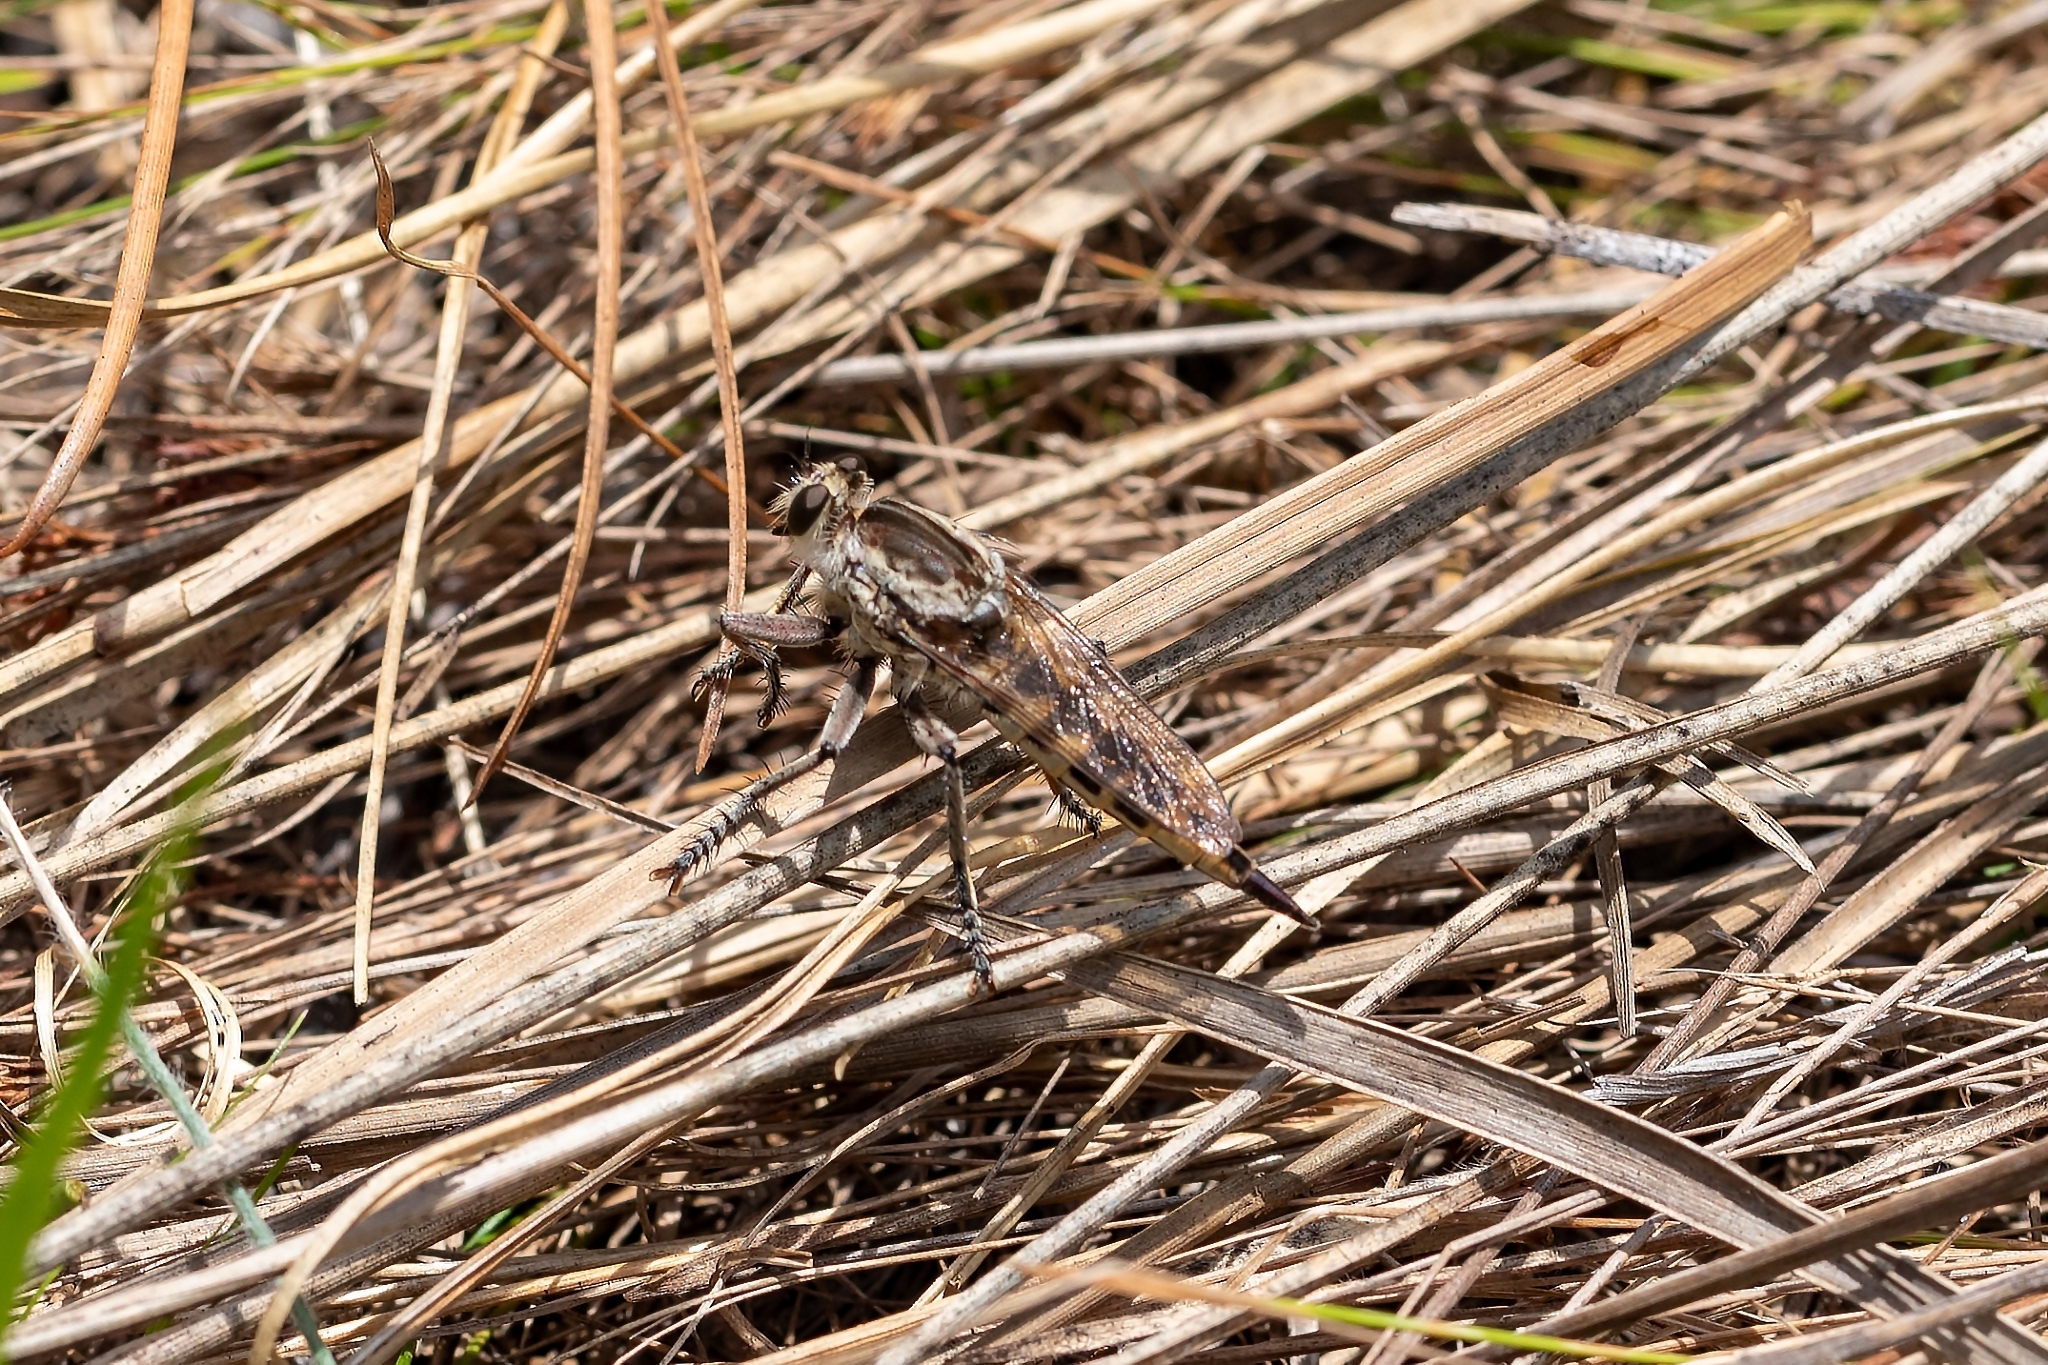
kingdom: Animalia
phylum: Arthropoda
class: Insecta
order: Diptera
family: Asilidae
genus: Triorla
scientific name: Triorla interrupta
